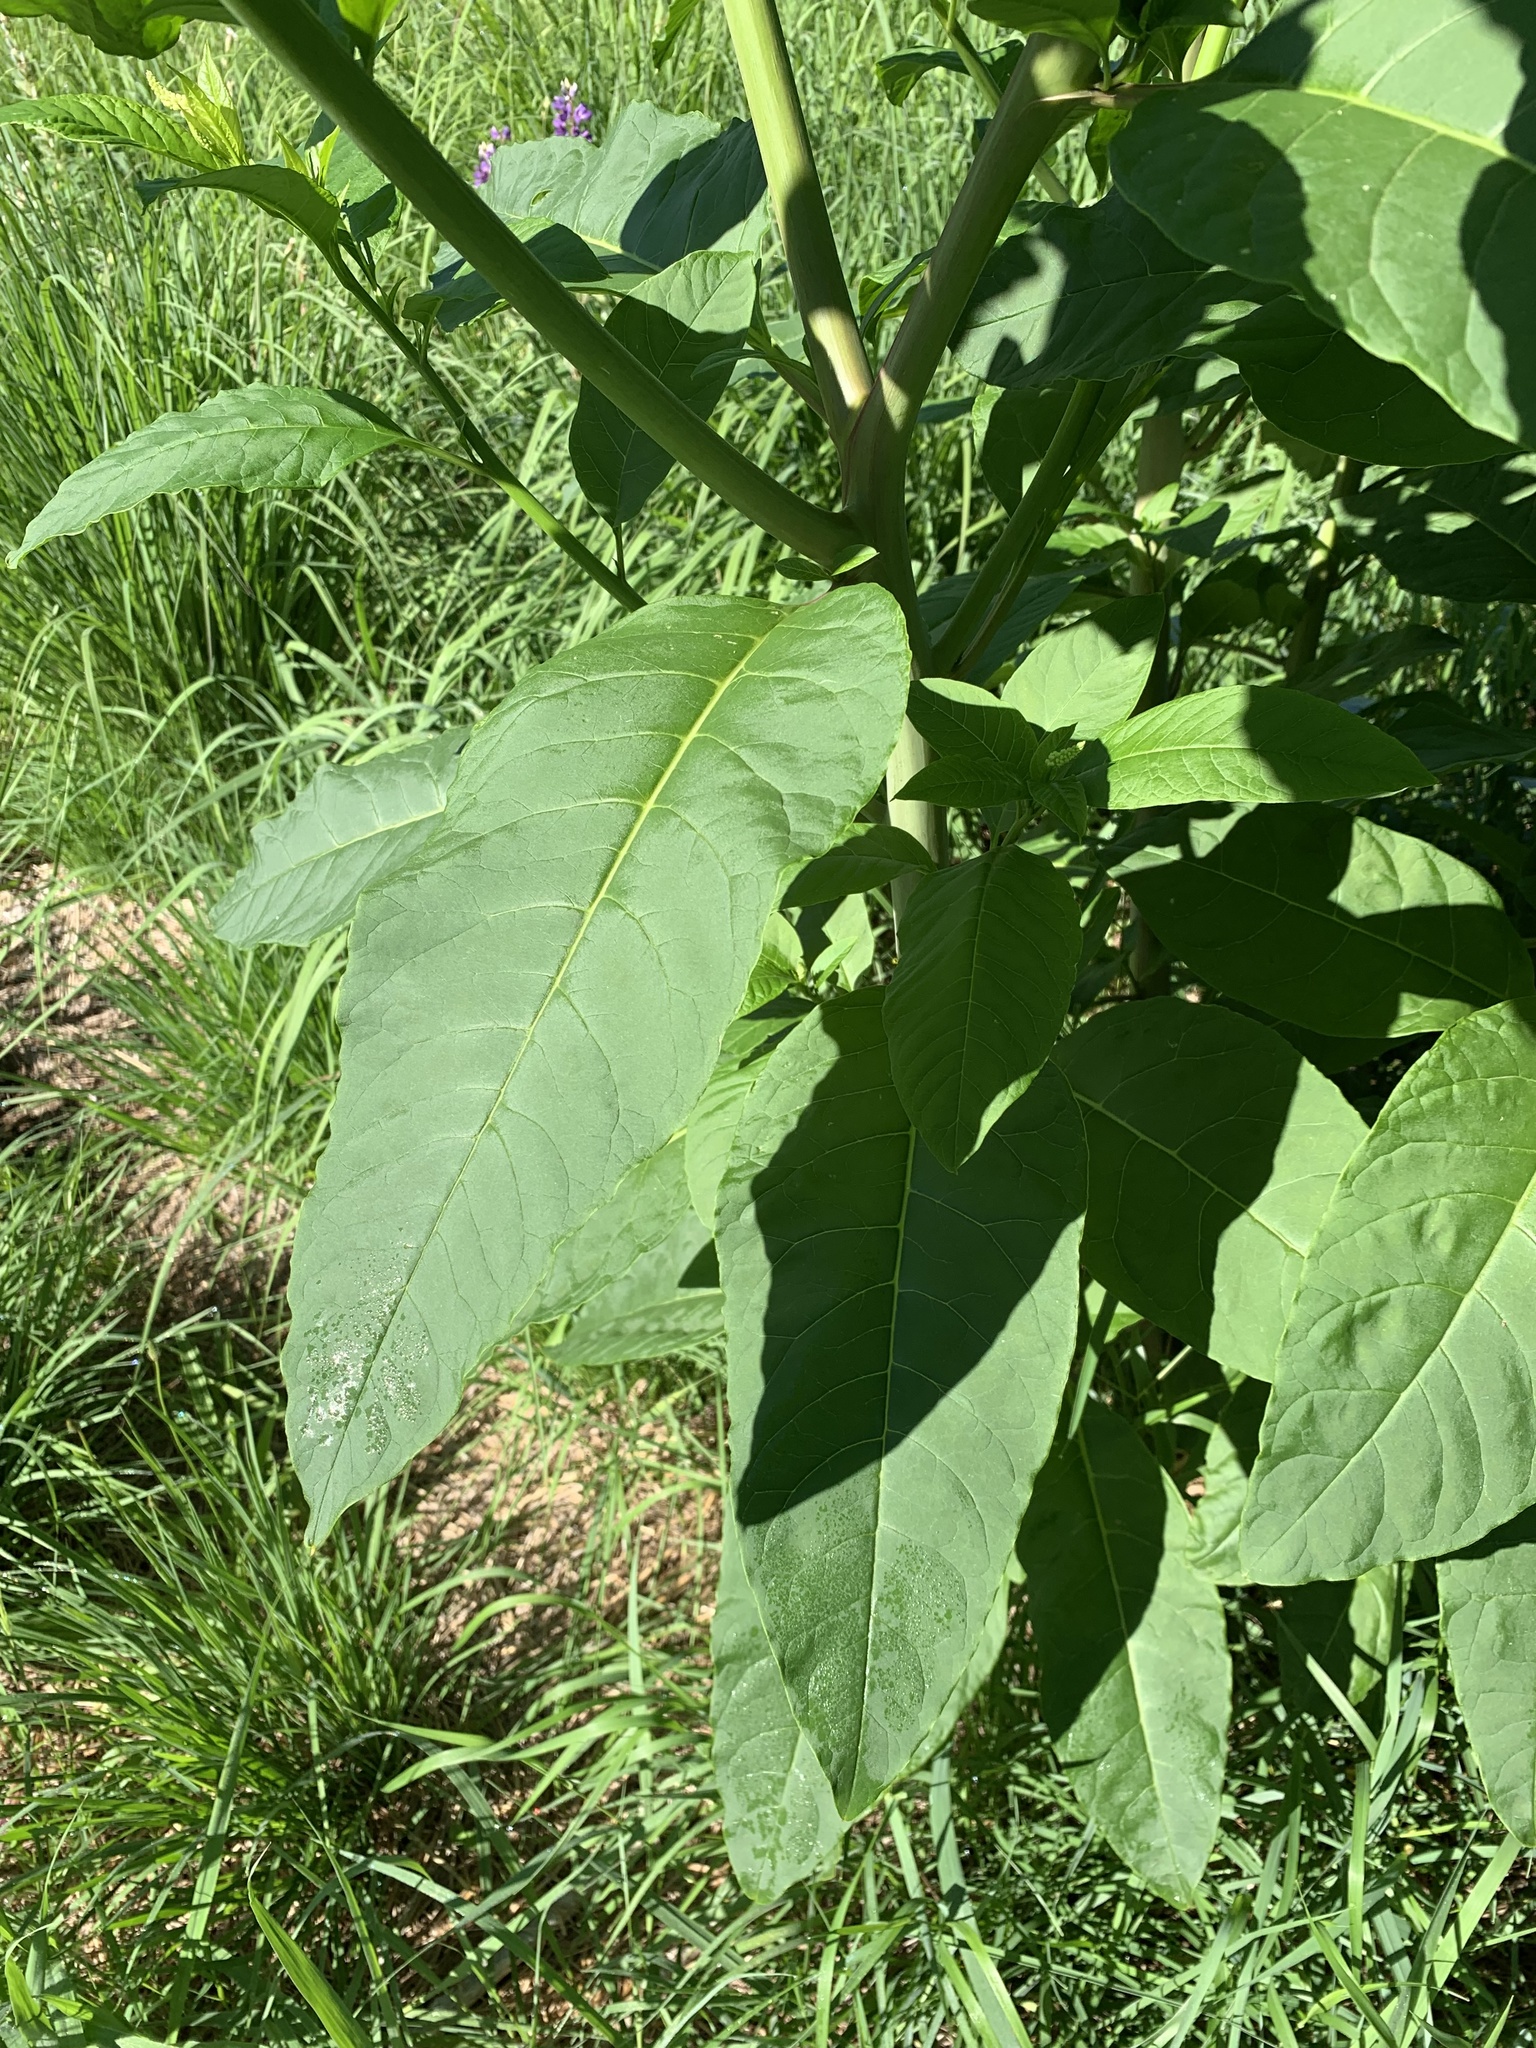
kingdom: Plantae
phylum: Tracheophyta
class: Magnoliopsida
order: Caryophyllales
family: Phytolaccaceae
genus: Phytolacca
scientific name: Phytolacca americana
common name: American pokeweed
